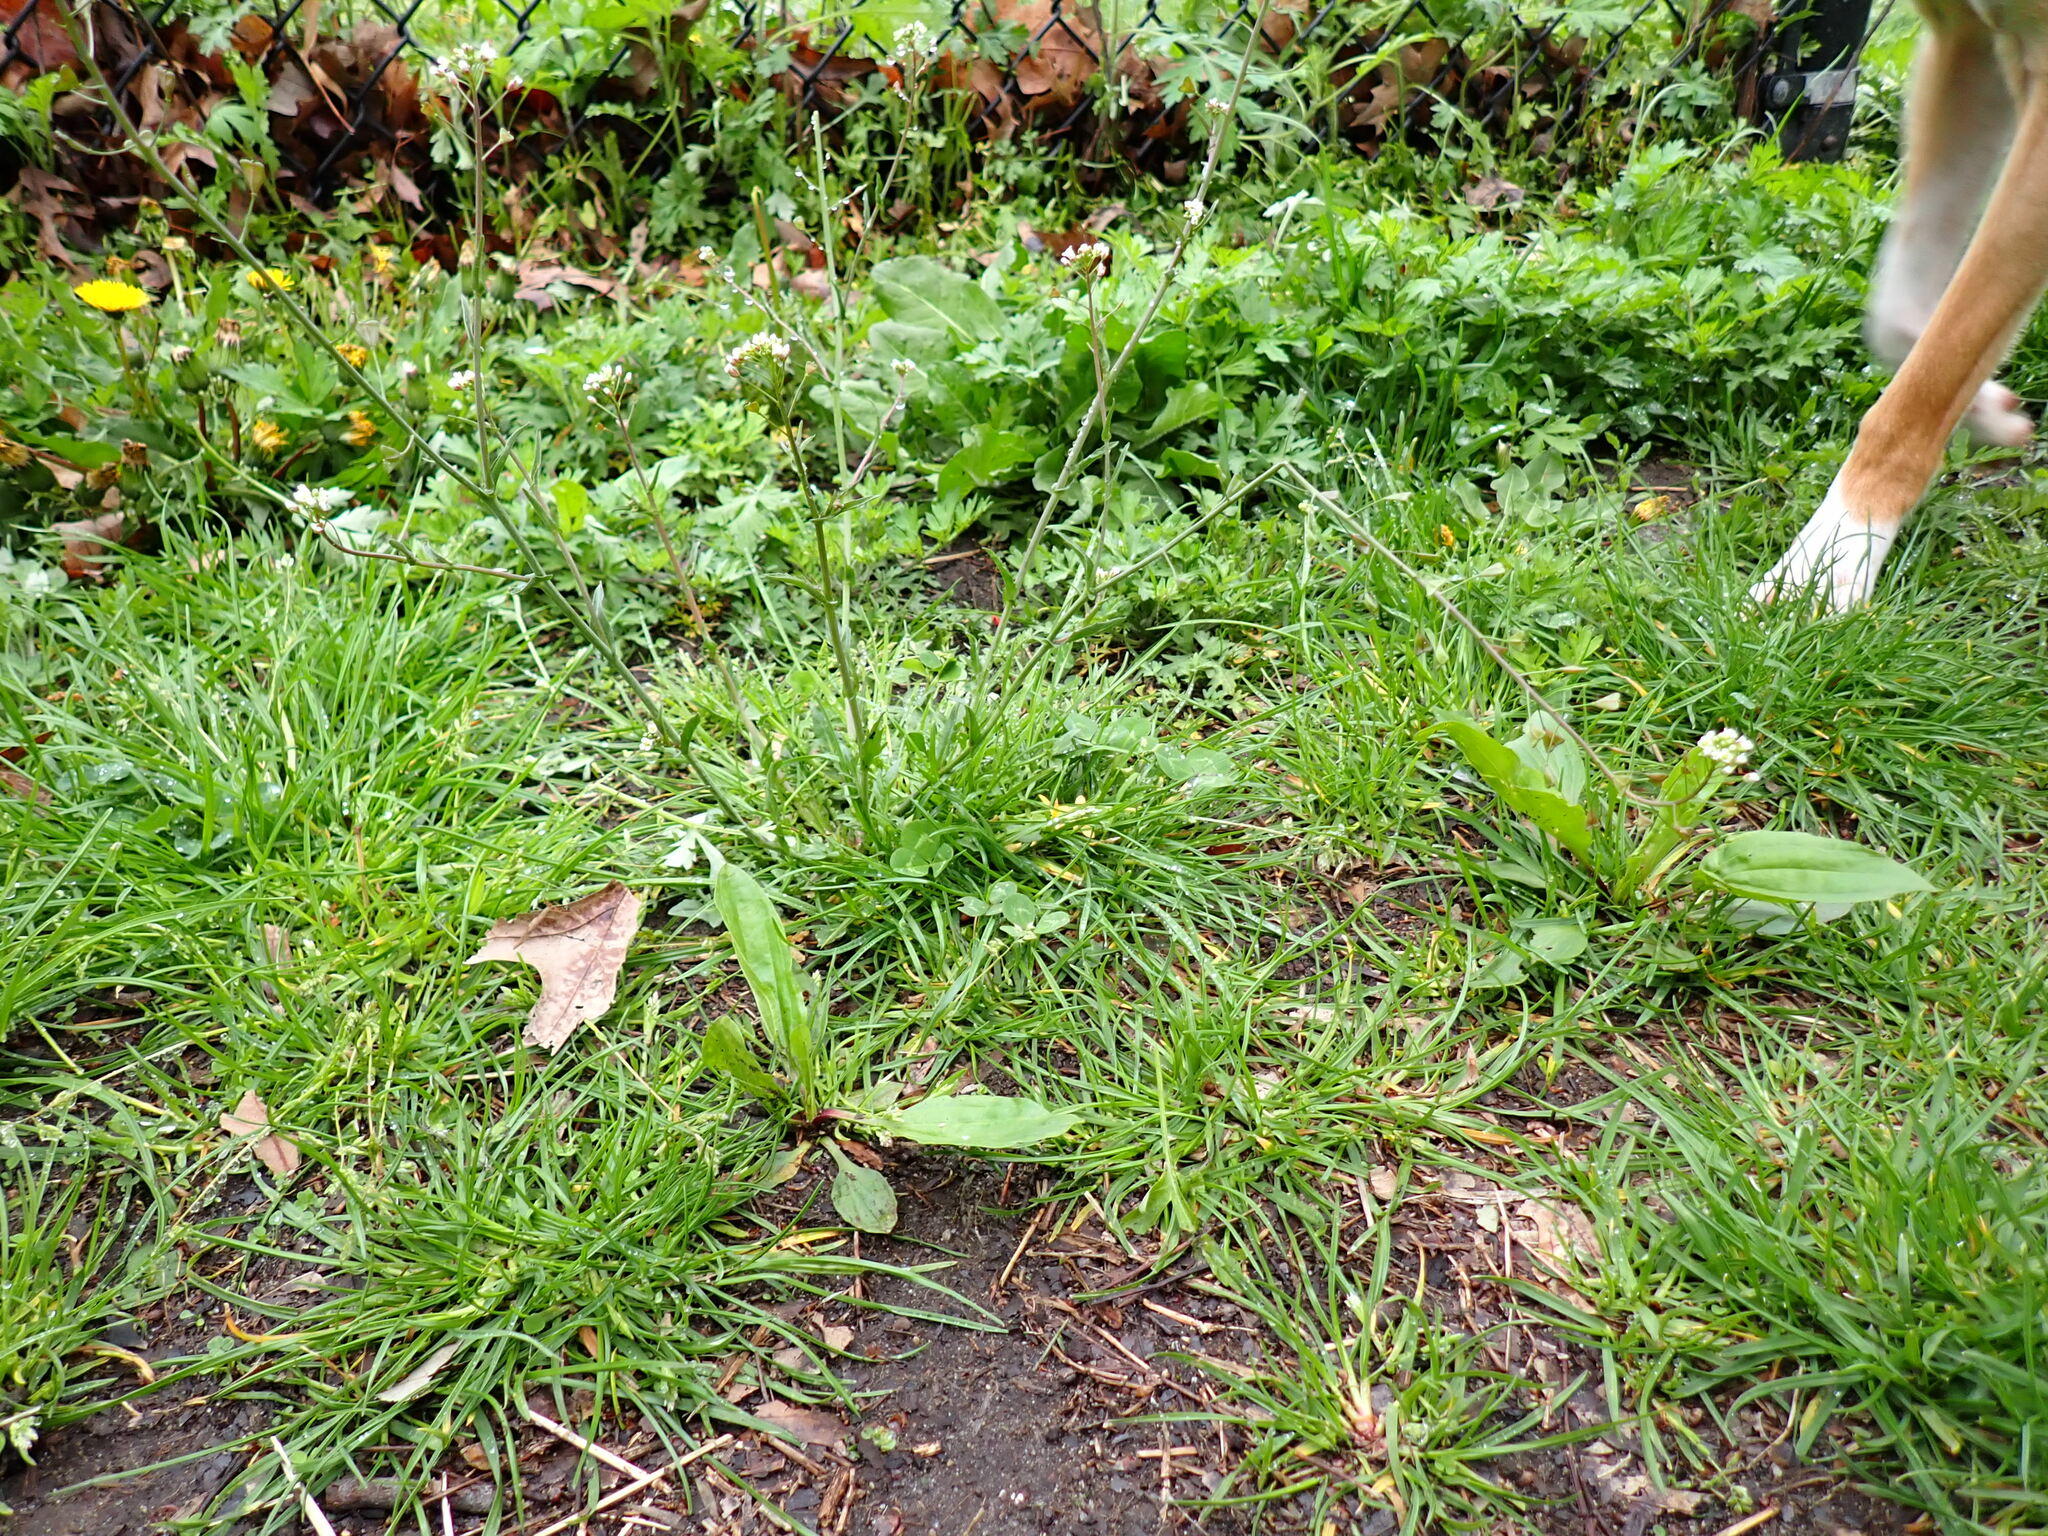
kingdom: Plantae
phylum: Tracheophyta
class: Magnoliopsida
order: Brassicales
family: Brassicaceae
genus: Capsella
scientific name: Capsella bursa-pastoris
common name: Shepherd's purse
